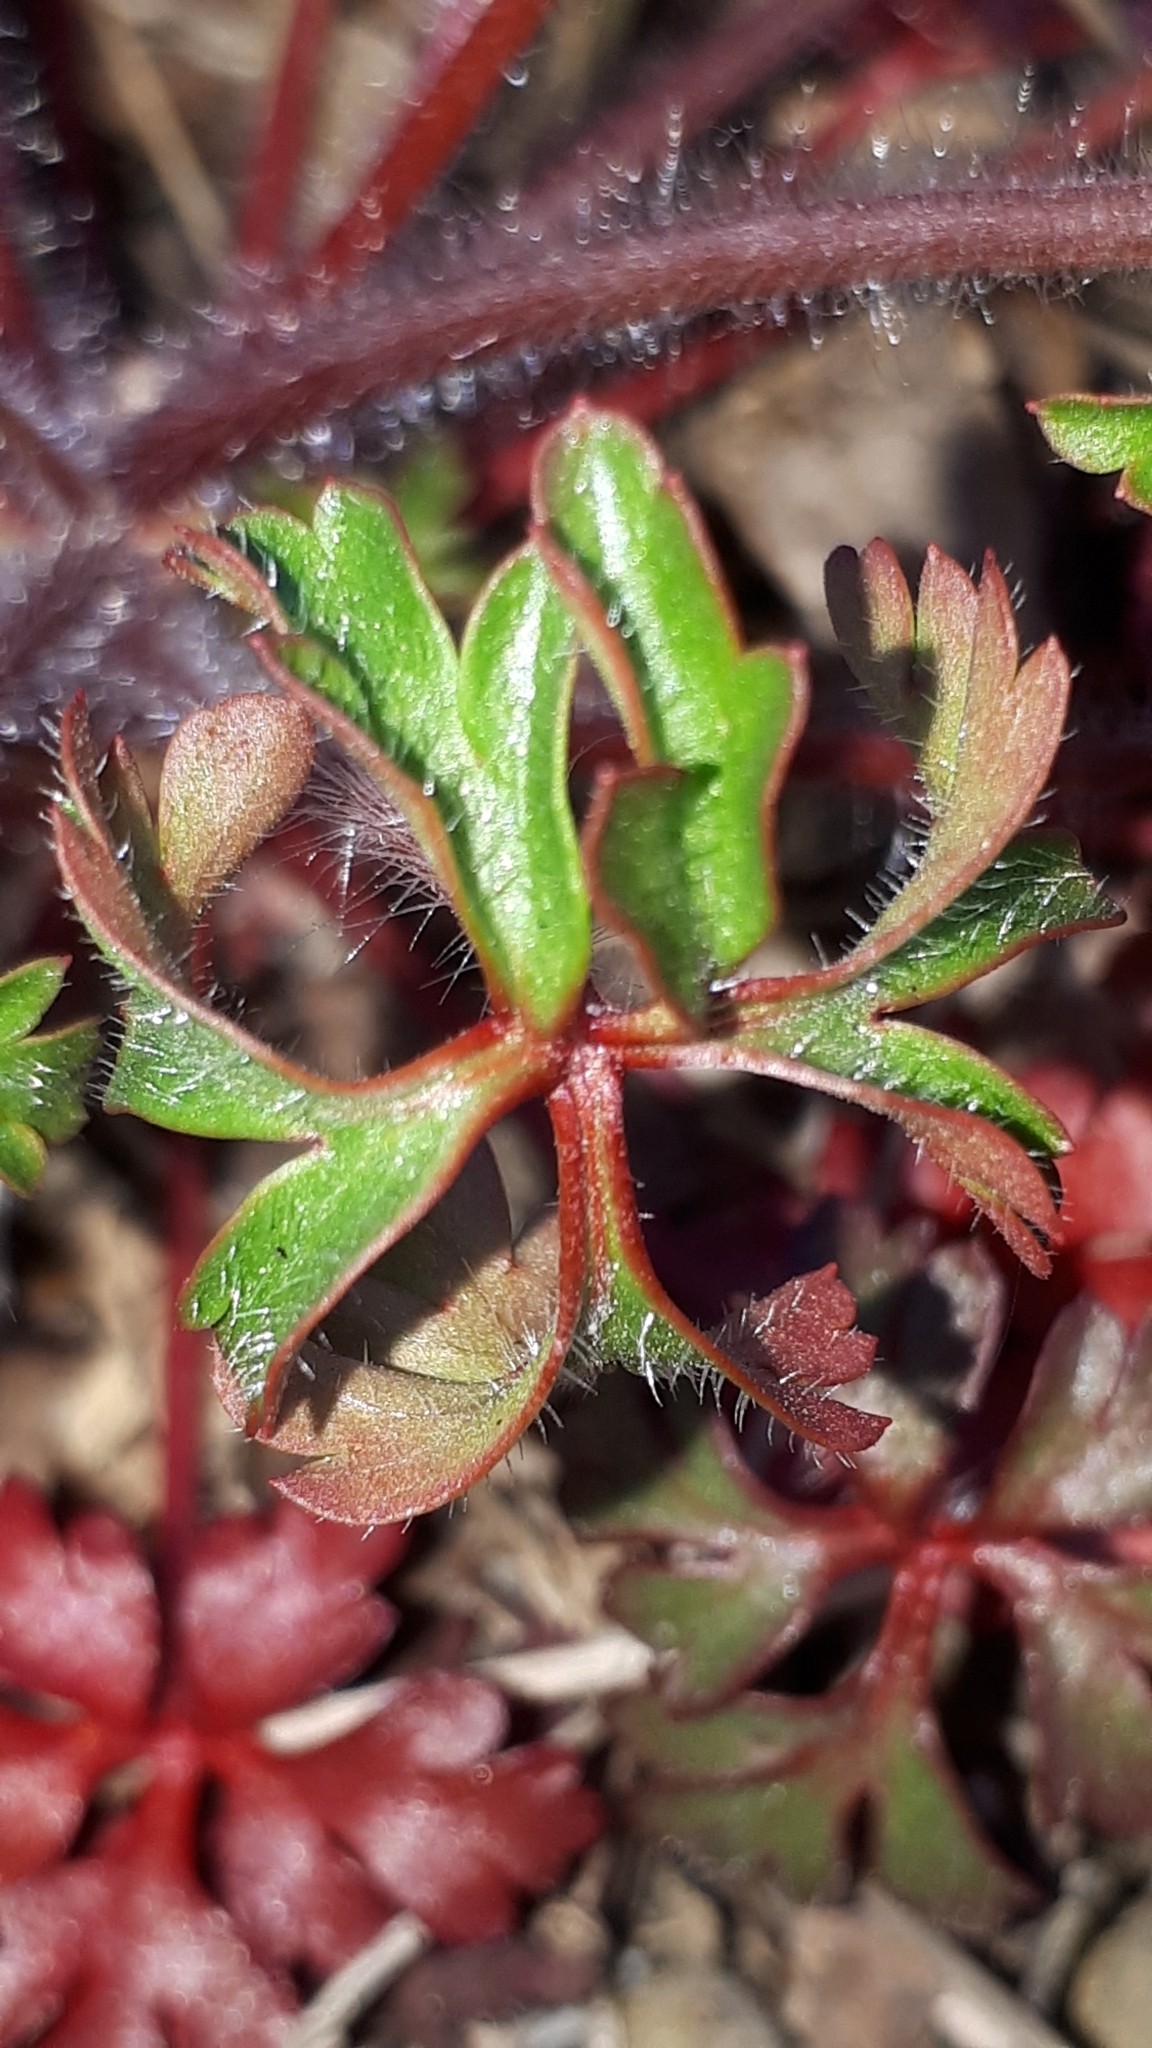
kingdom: Plantae
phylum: Tracheophyta
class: Magnoliopsida
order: Geraniales
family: Geraniaceae
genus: Geranium
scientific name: Geranium purpureum
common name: Little-robin
